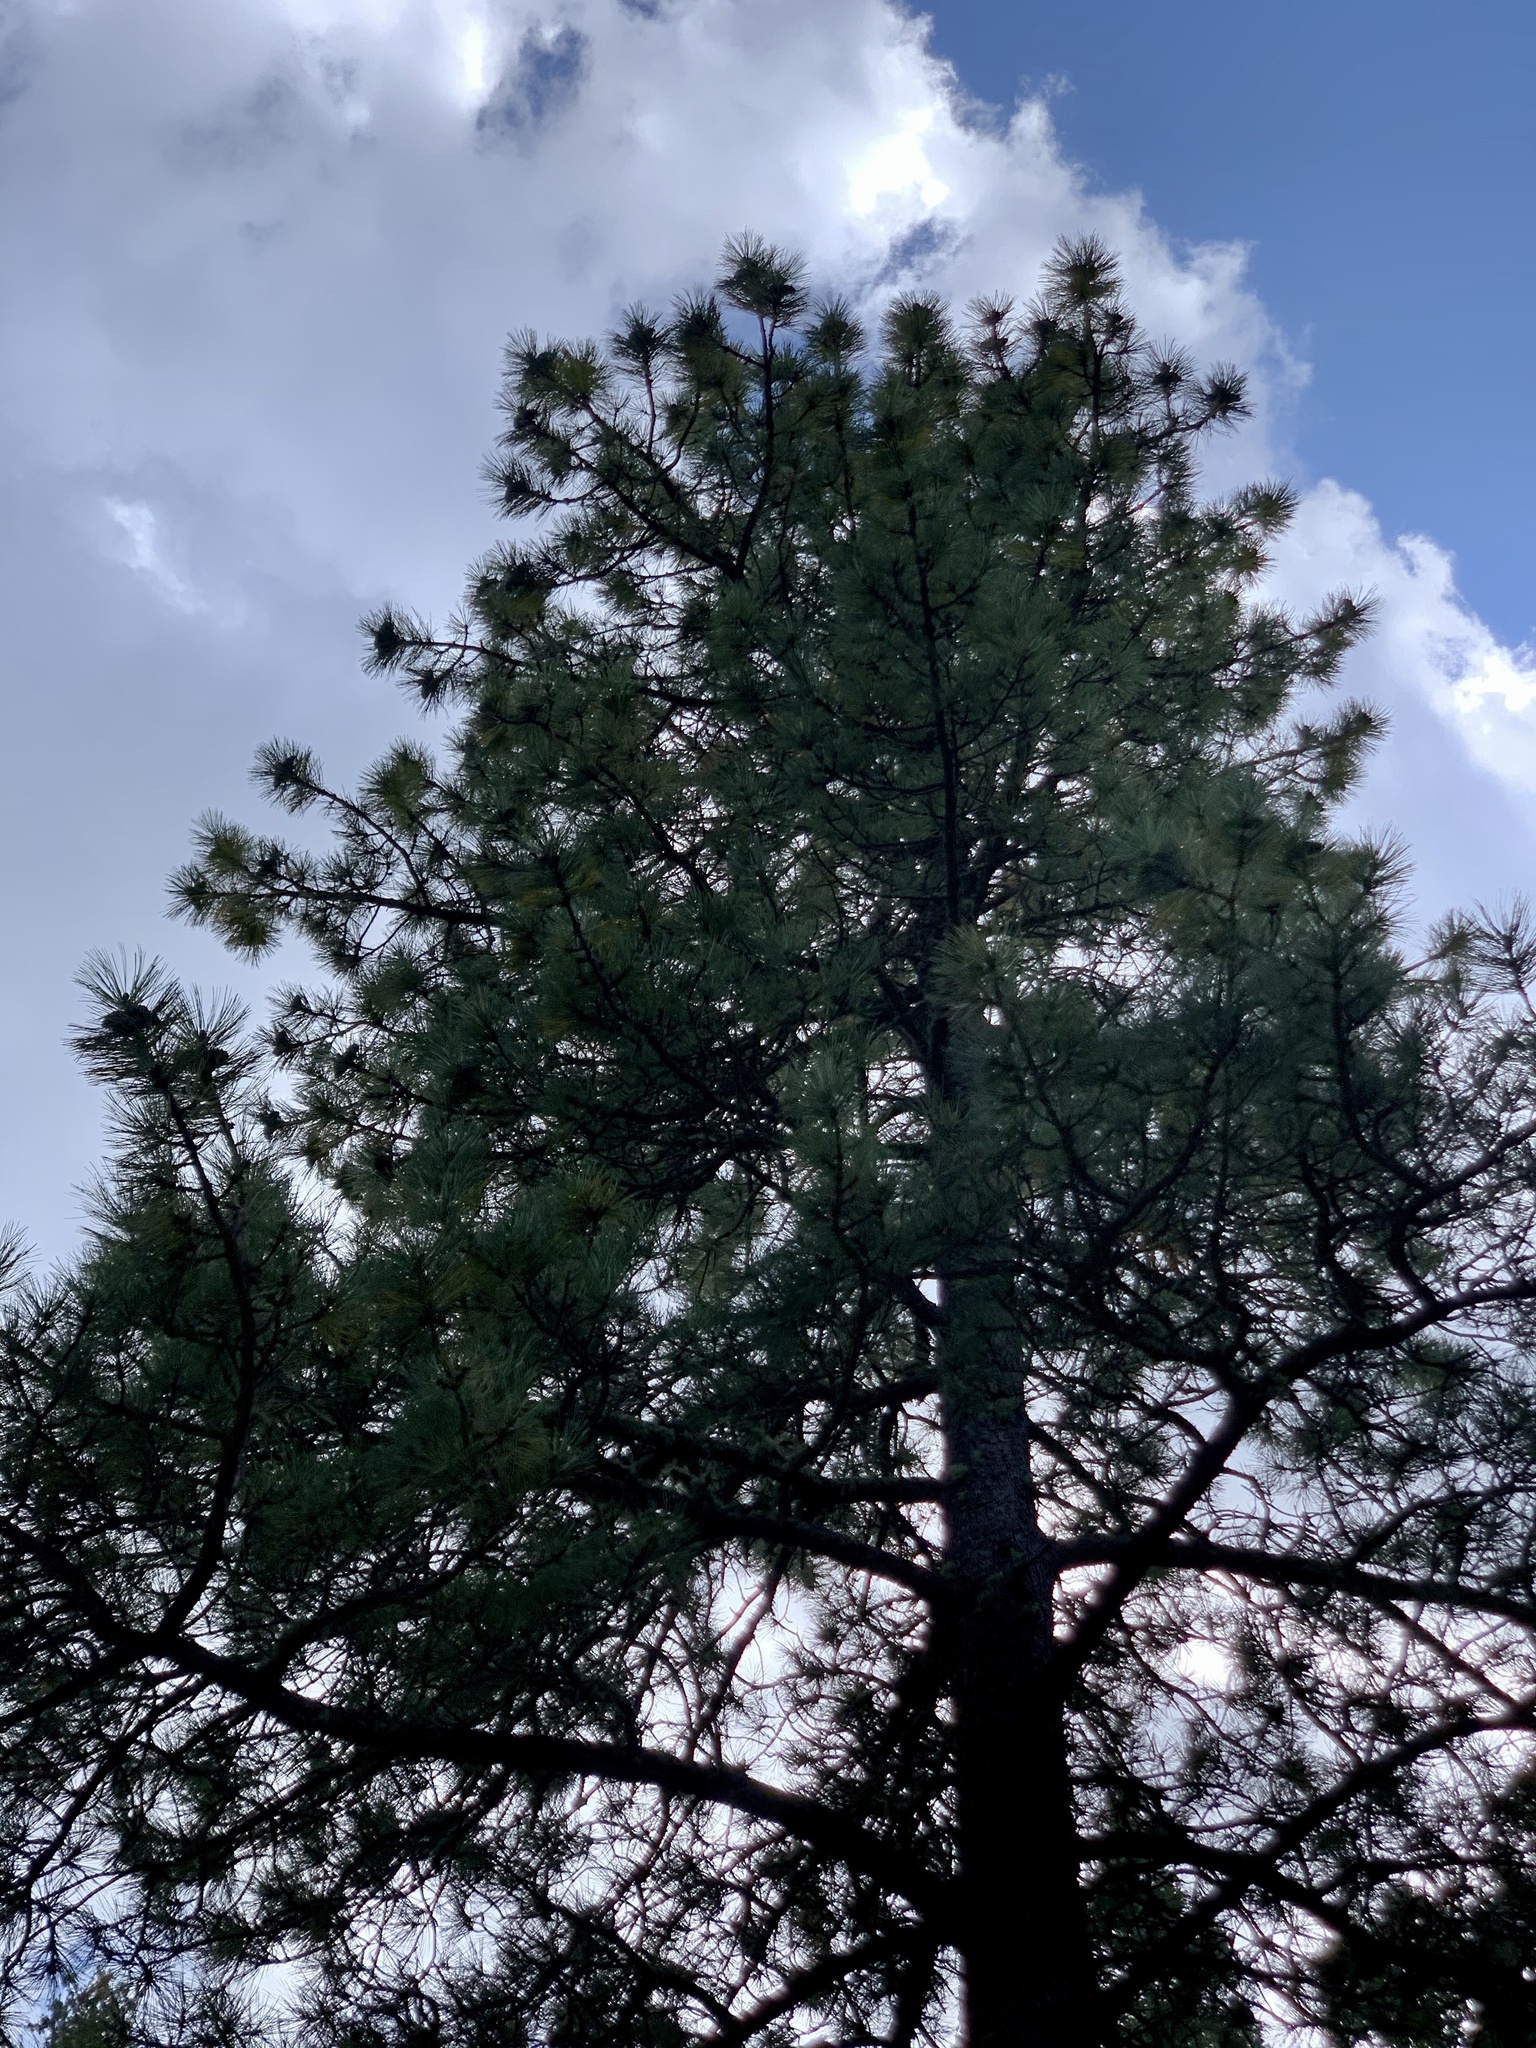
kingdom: Plantae
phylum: Tracheophyta
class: Pinopsida
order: Pinales
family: Pinaceae
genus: Pinus
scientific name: Pinus ponderosa
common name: Western yellow-pine
